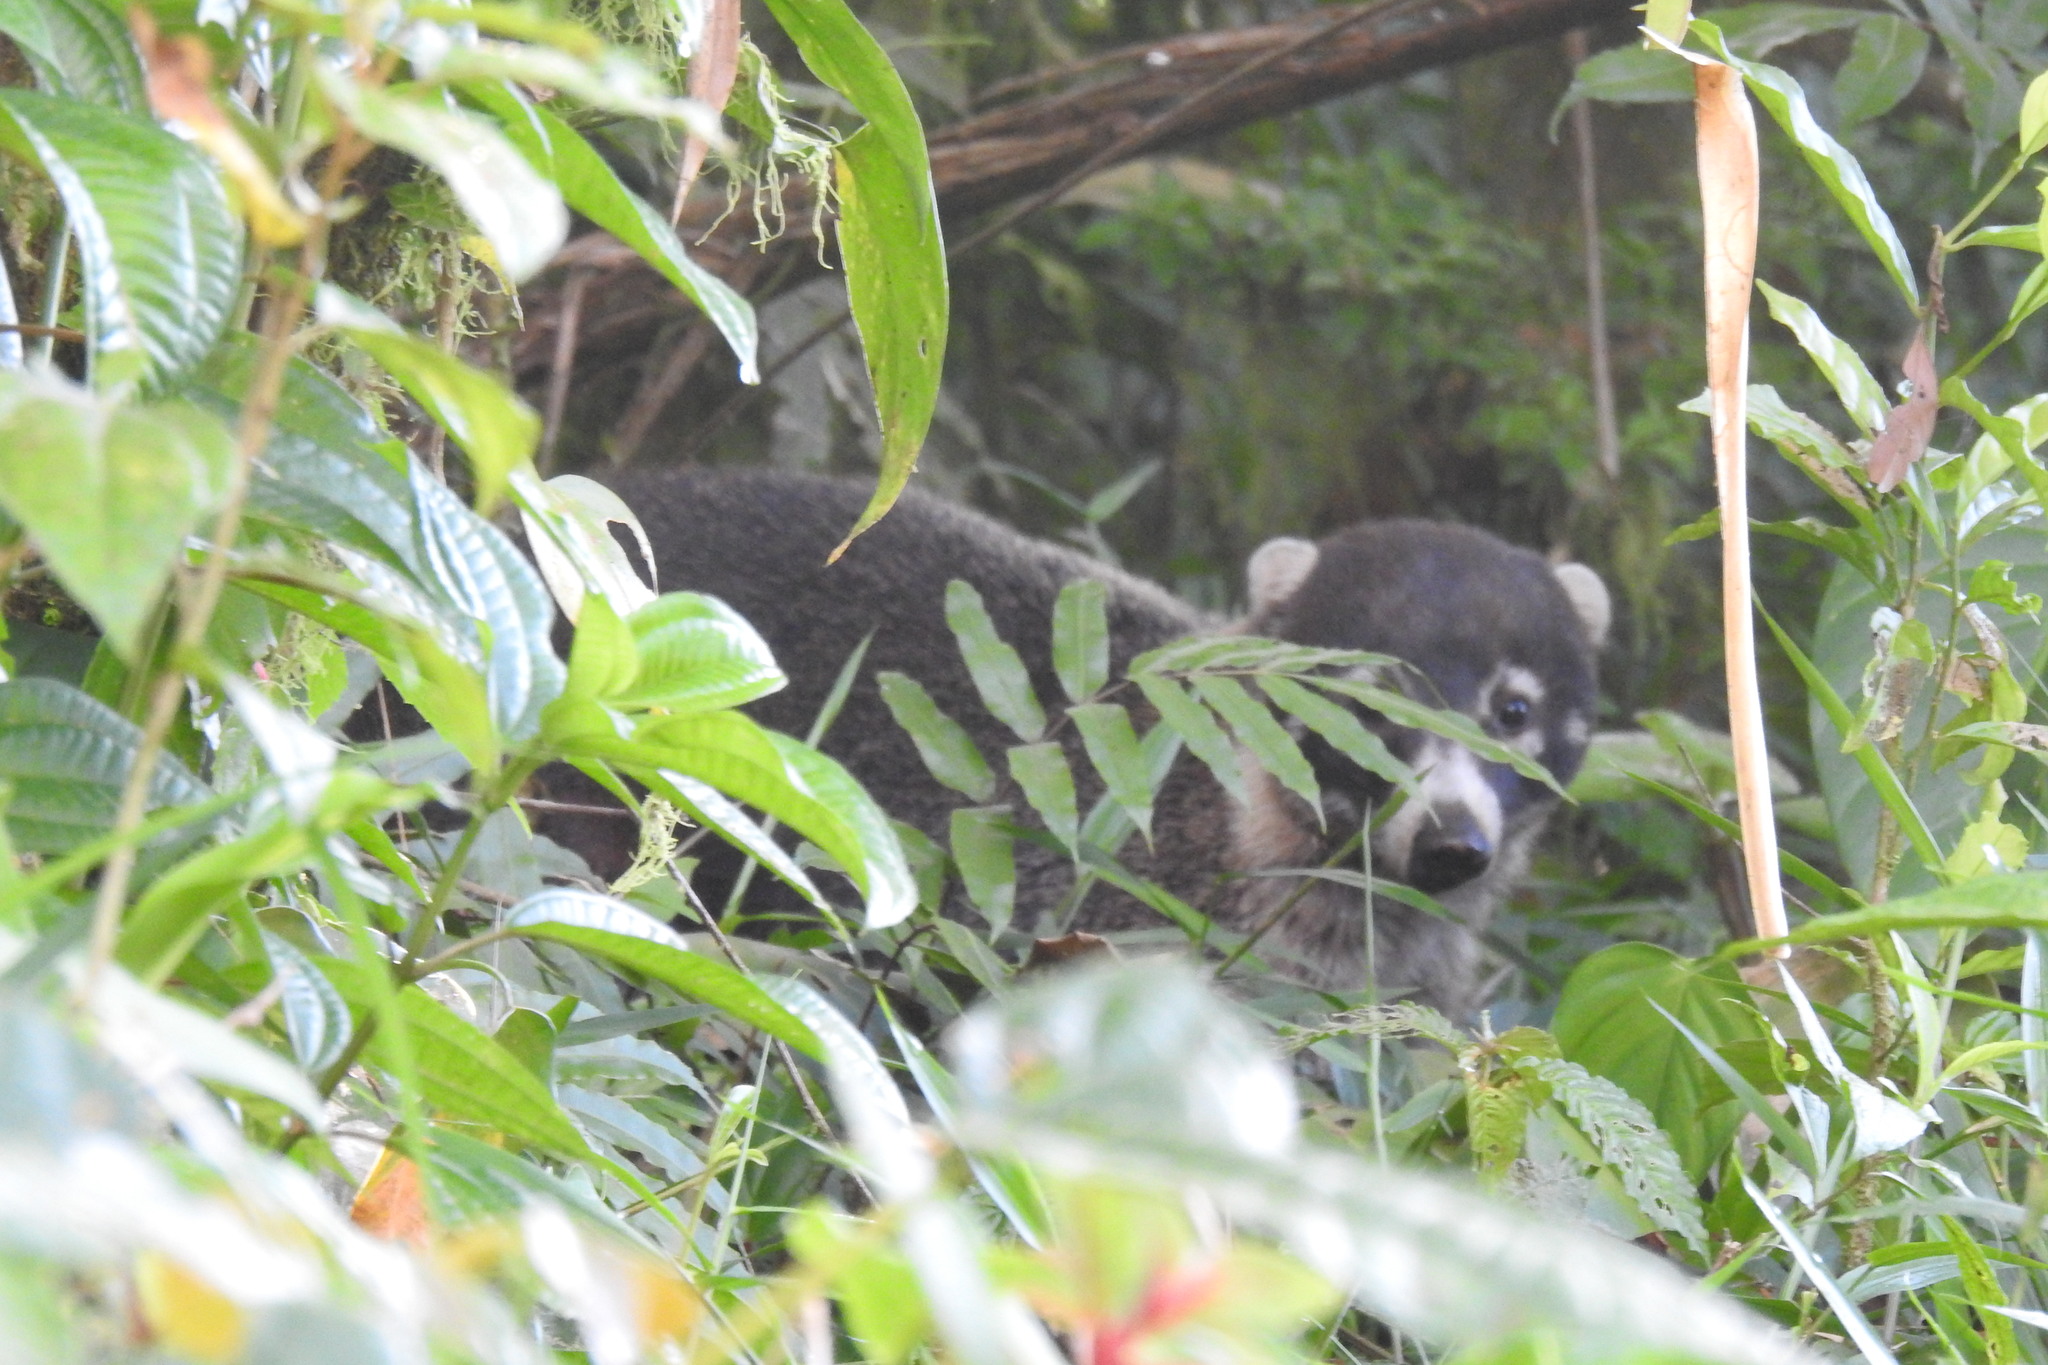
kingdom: Animalia
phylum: Chordata
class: Mammalia
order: Carnivora
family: Procyonidae
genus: Nasua
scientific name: Nasua narica
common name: White-nosed coati
